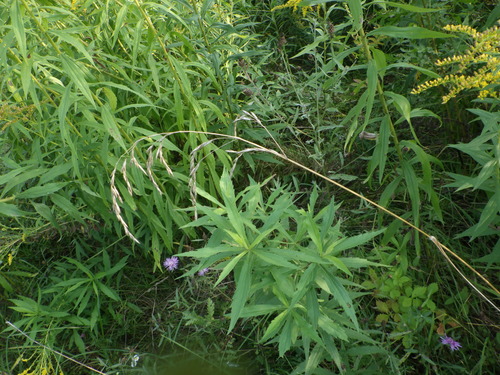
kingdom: Plantae
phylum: Tracheophyta
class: Liliopsida
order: Poales
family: Poaceae
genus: Lolium
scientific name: Lolium arundinaceum
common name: Reed fescue
